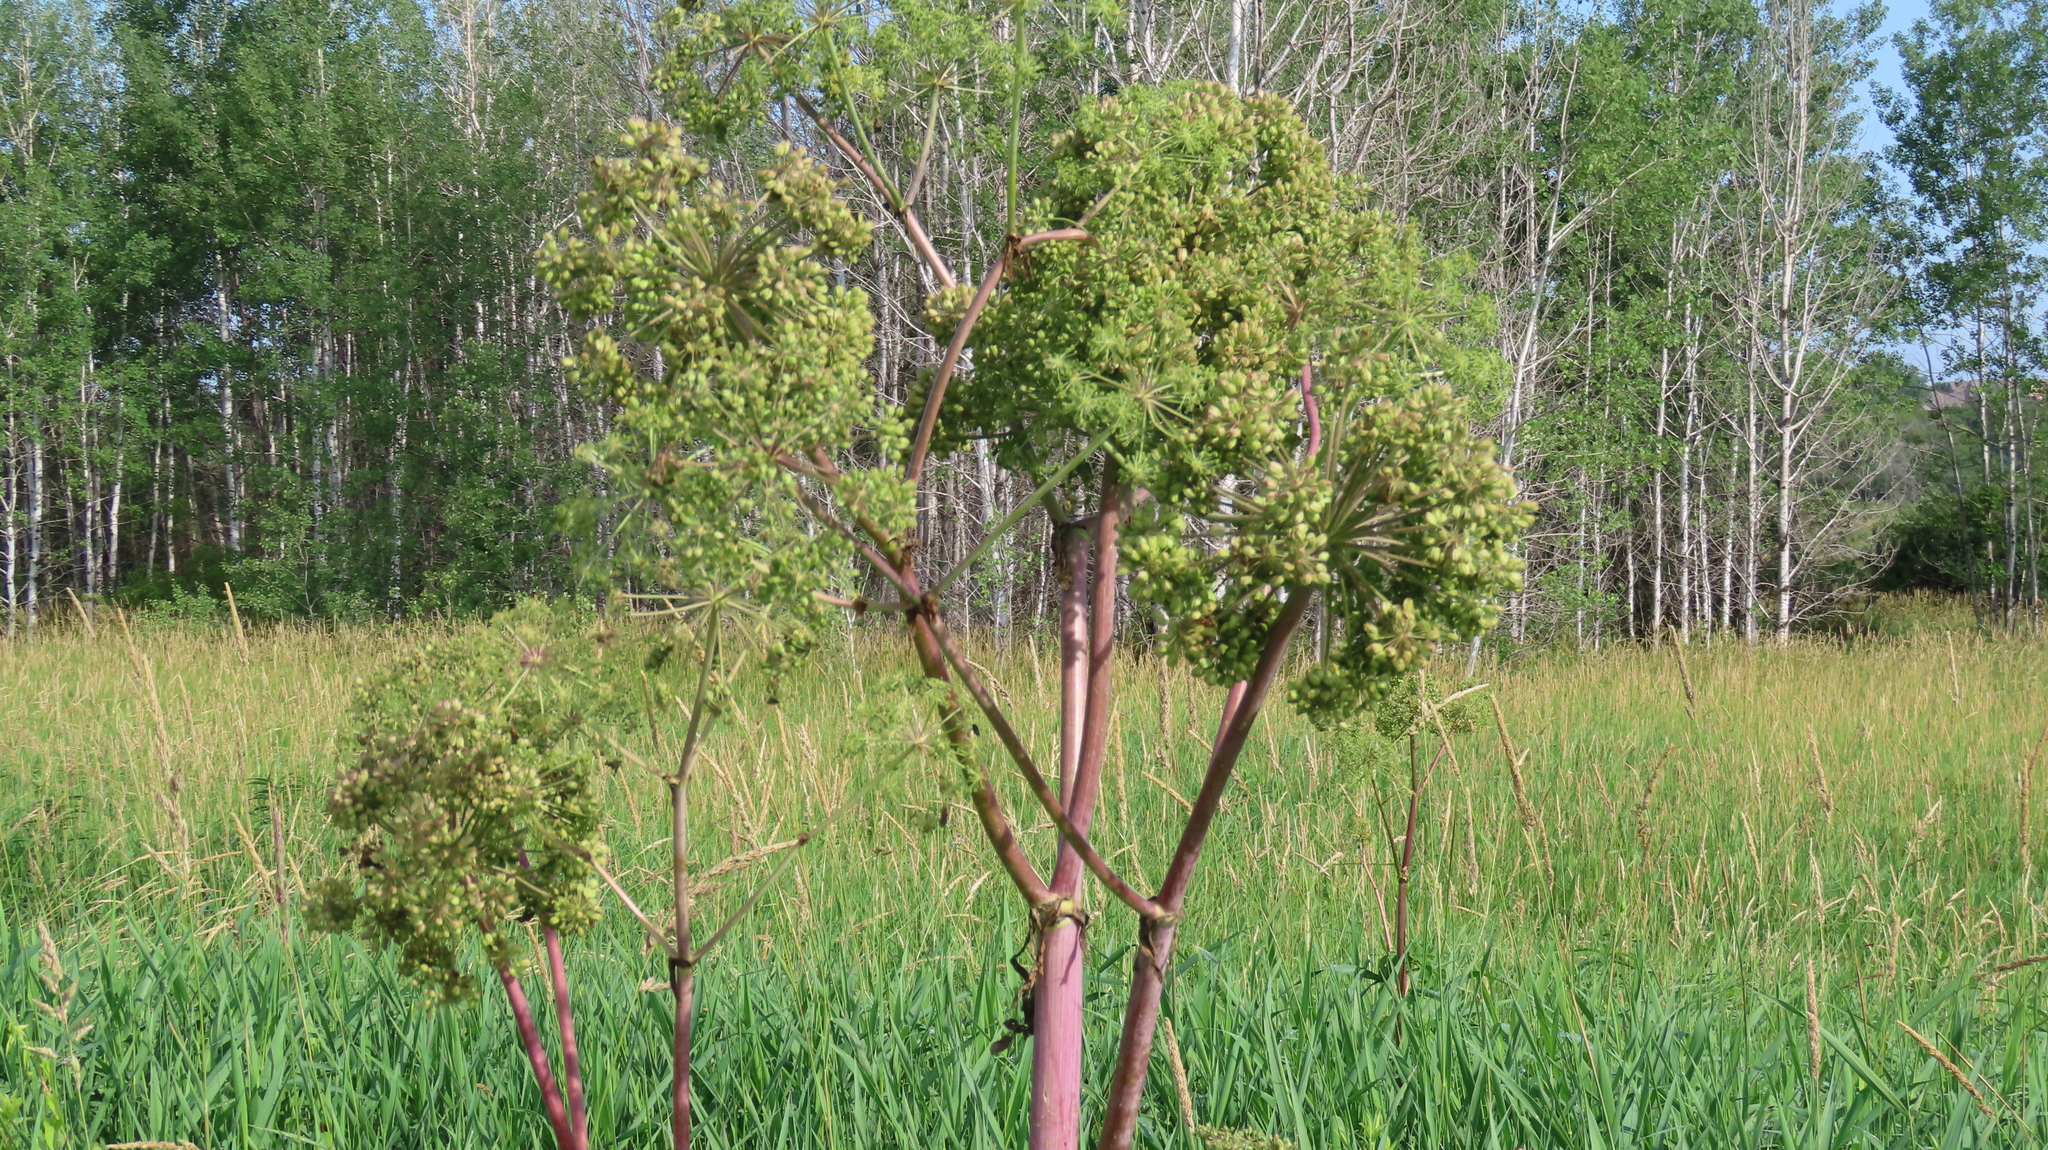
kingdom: Plantae
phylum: Tracheophyta
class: Magnoliopsida
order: Apiales
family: Apiaceae
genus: Angelica
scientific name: Angelica atropurpurea
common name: Great angelica
